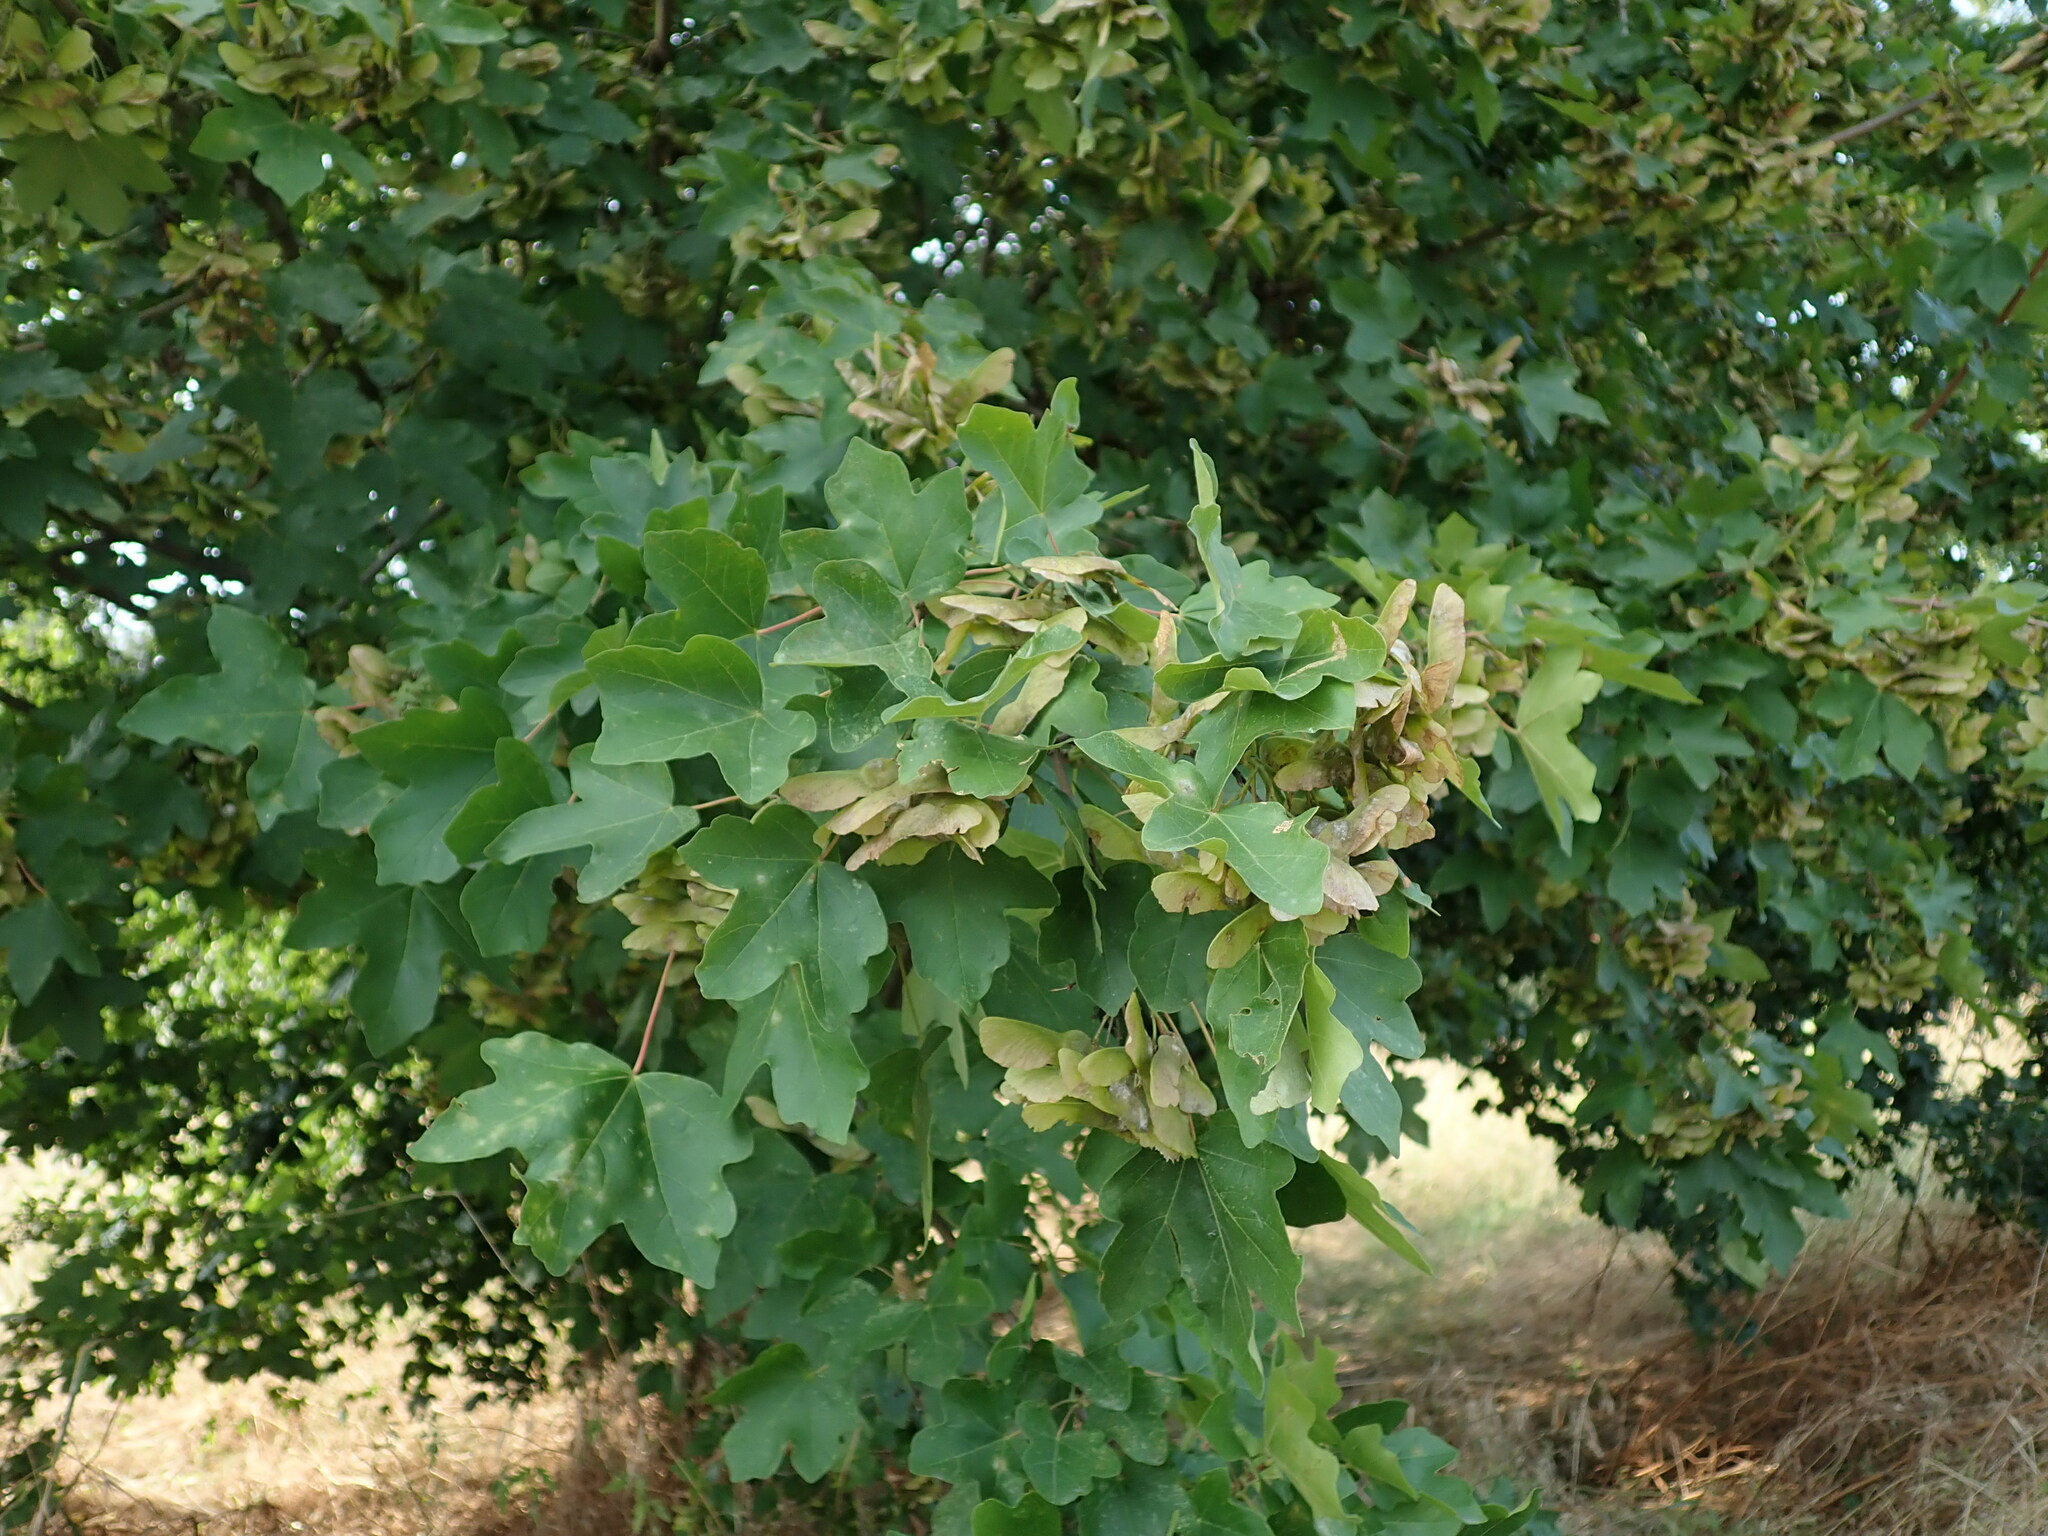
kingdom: Plantae
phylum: Tracheophyta
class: Magnoliopsida
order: Sapindales
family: Sapindaceae
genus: Acer
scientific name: Acer campestre
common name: Field maple
